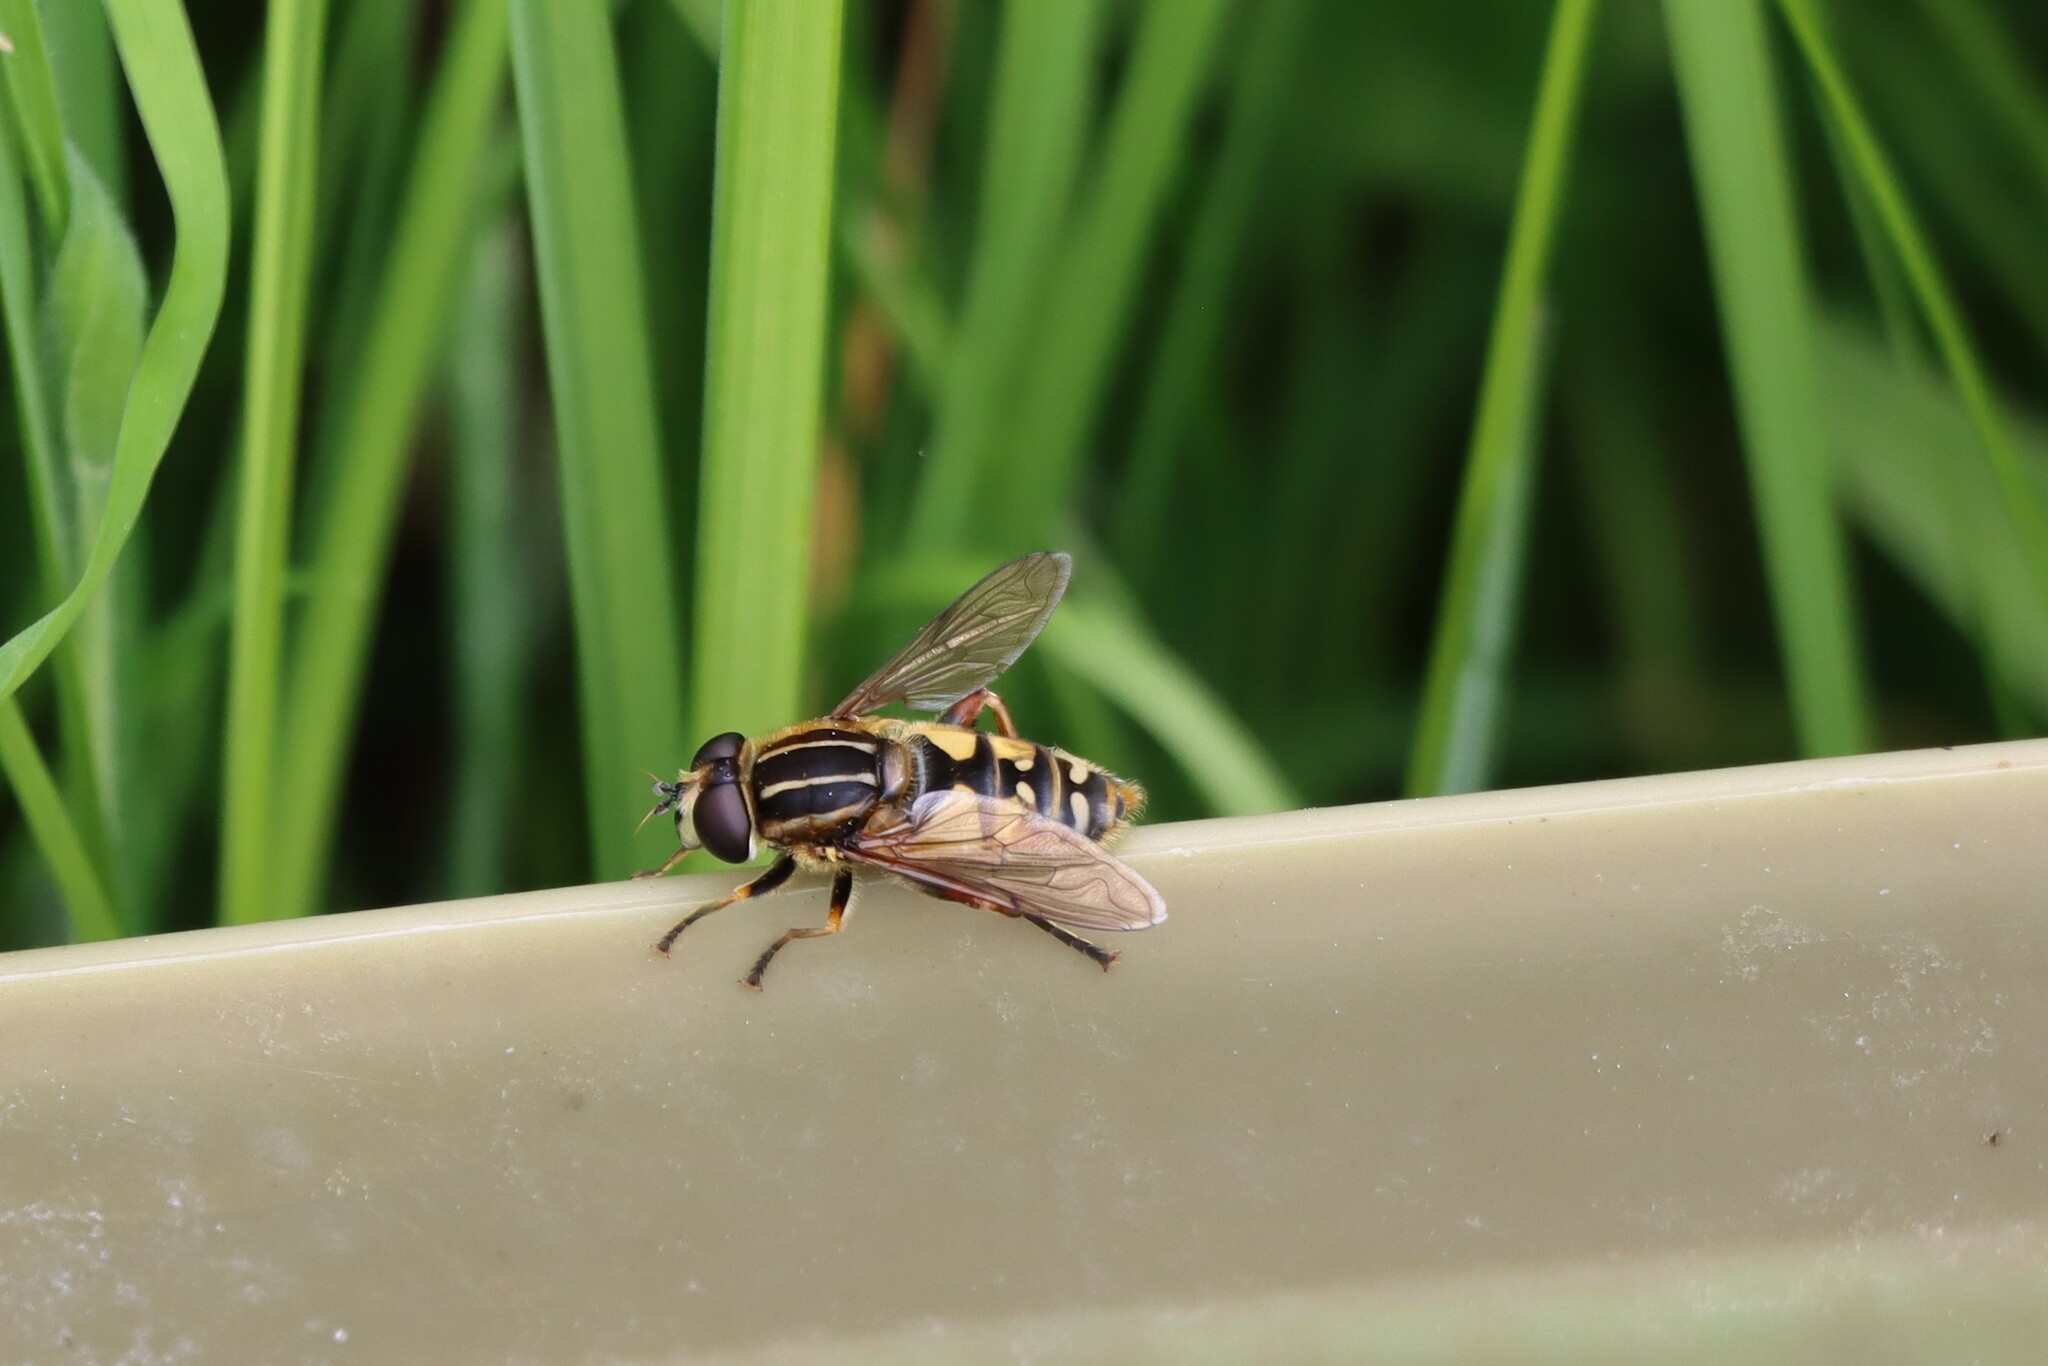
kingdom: Animalia
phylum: Arthropoda
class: Insecta
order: Diptera
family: Syrphidae
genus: Helophilus
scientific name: Helophilus pendulus
